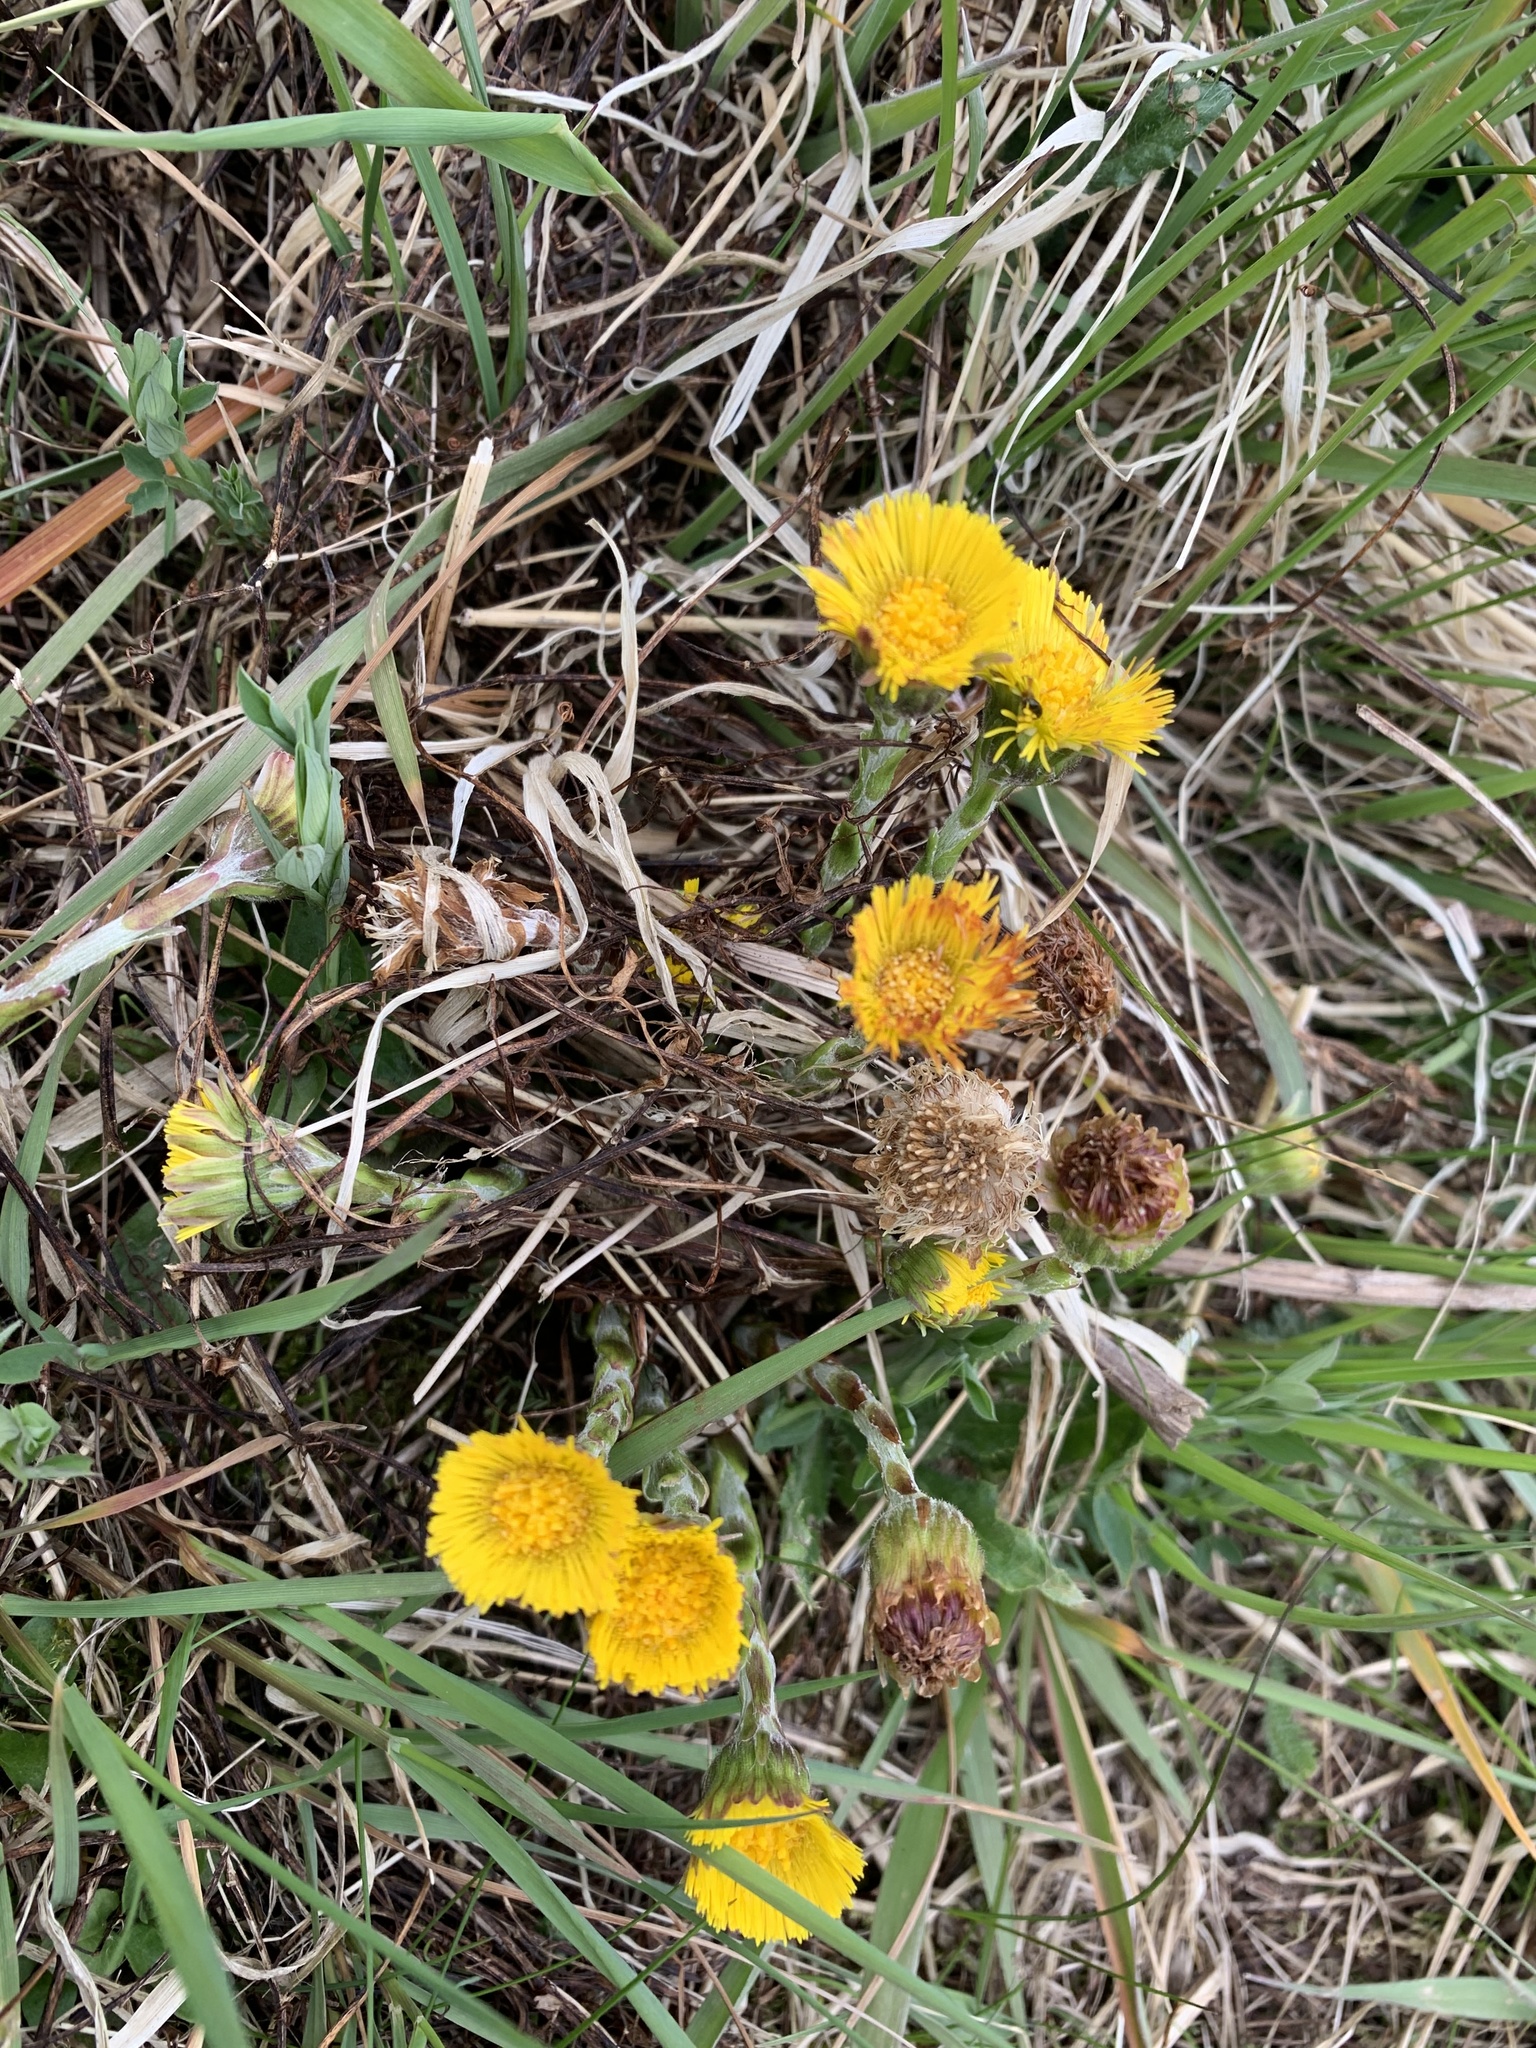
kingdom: Plantae
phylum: Tracheophyta
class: Magnoliopsida
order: Asterales
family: Asteraceae
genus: Tussilago
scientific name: Tussilago farfara
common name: Coltsfoot
